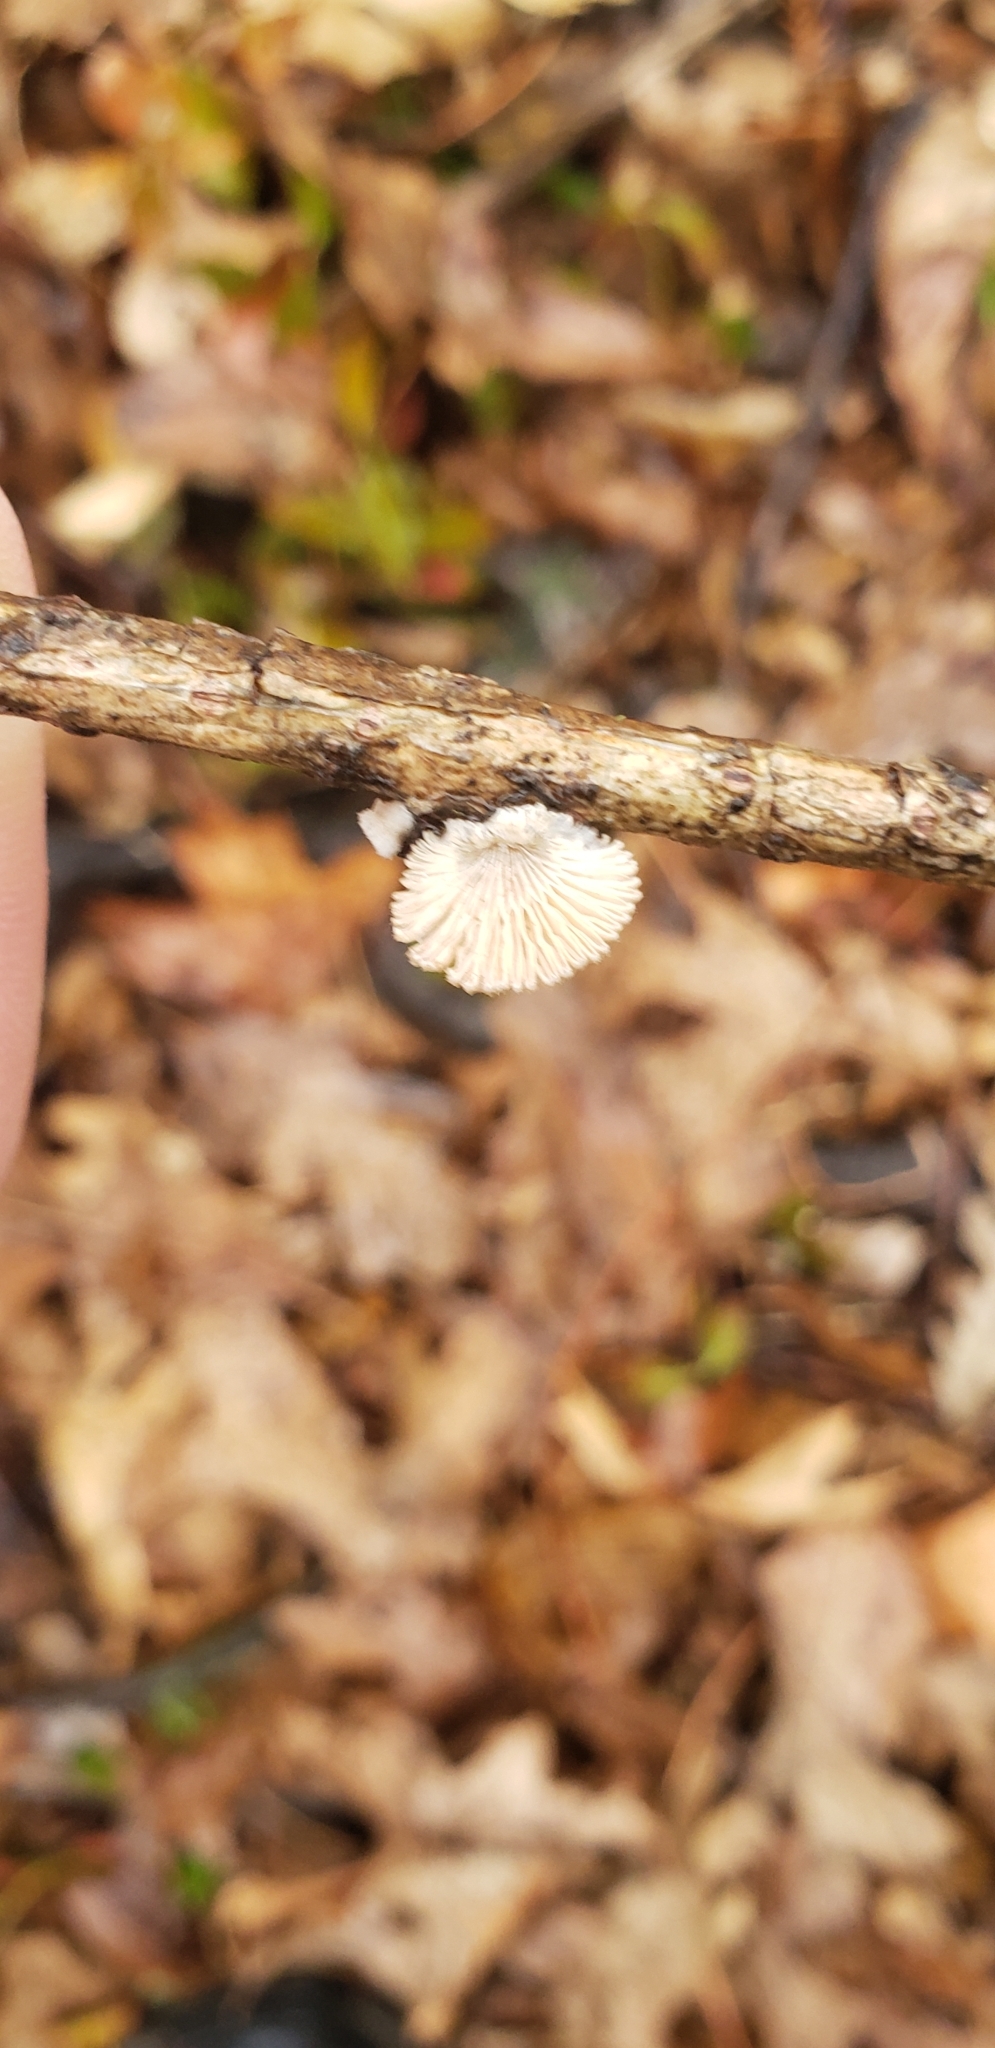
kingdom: Fungi
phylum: Basidiomycota
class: Agaricomycetes
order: Agaricales
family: Schizophyllaceae
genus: Schizophyllum
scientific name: Schizophyllum commune
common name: Common porecrust
